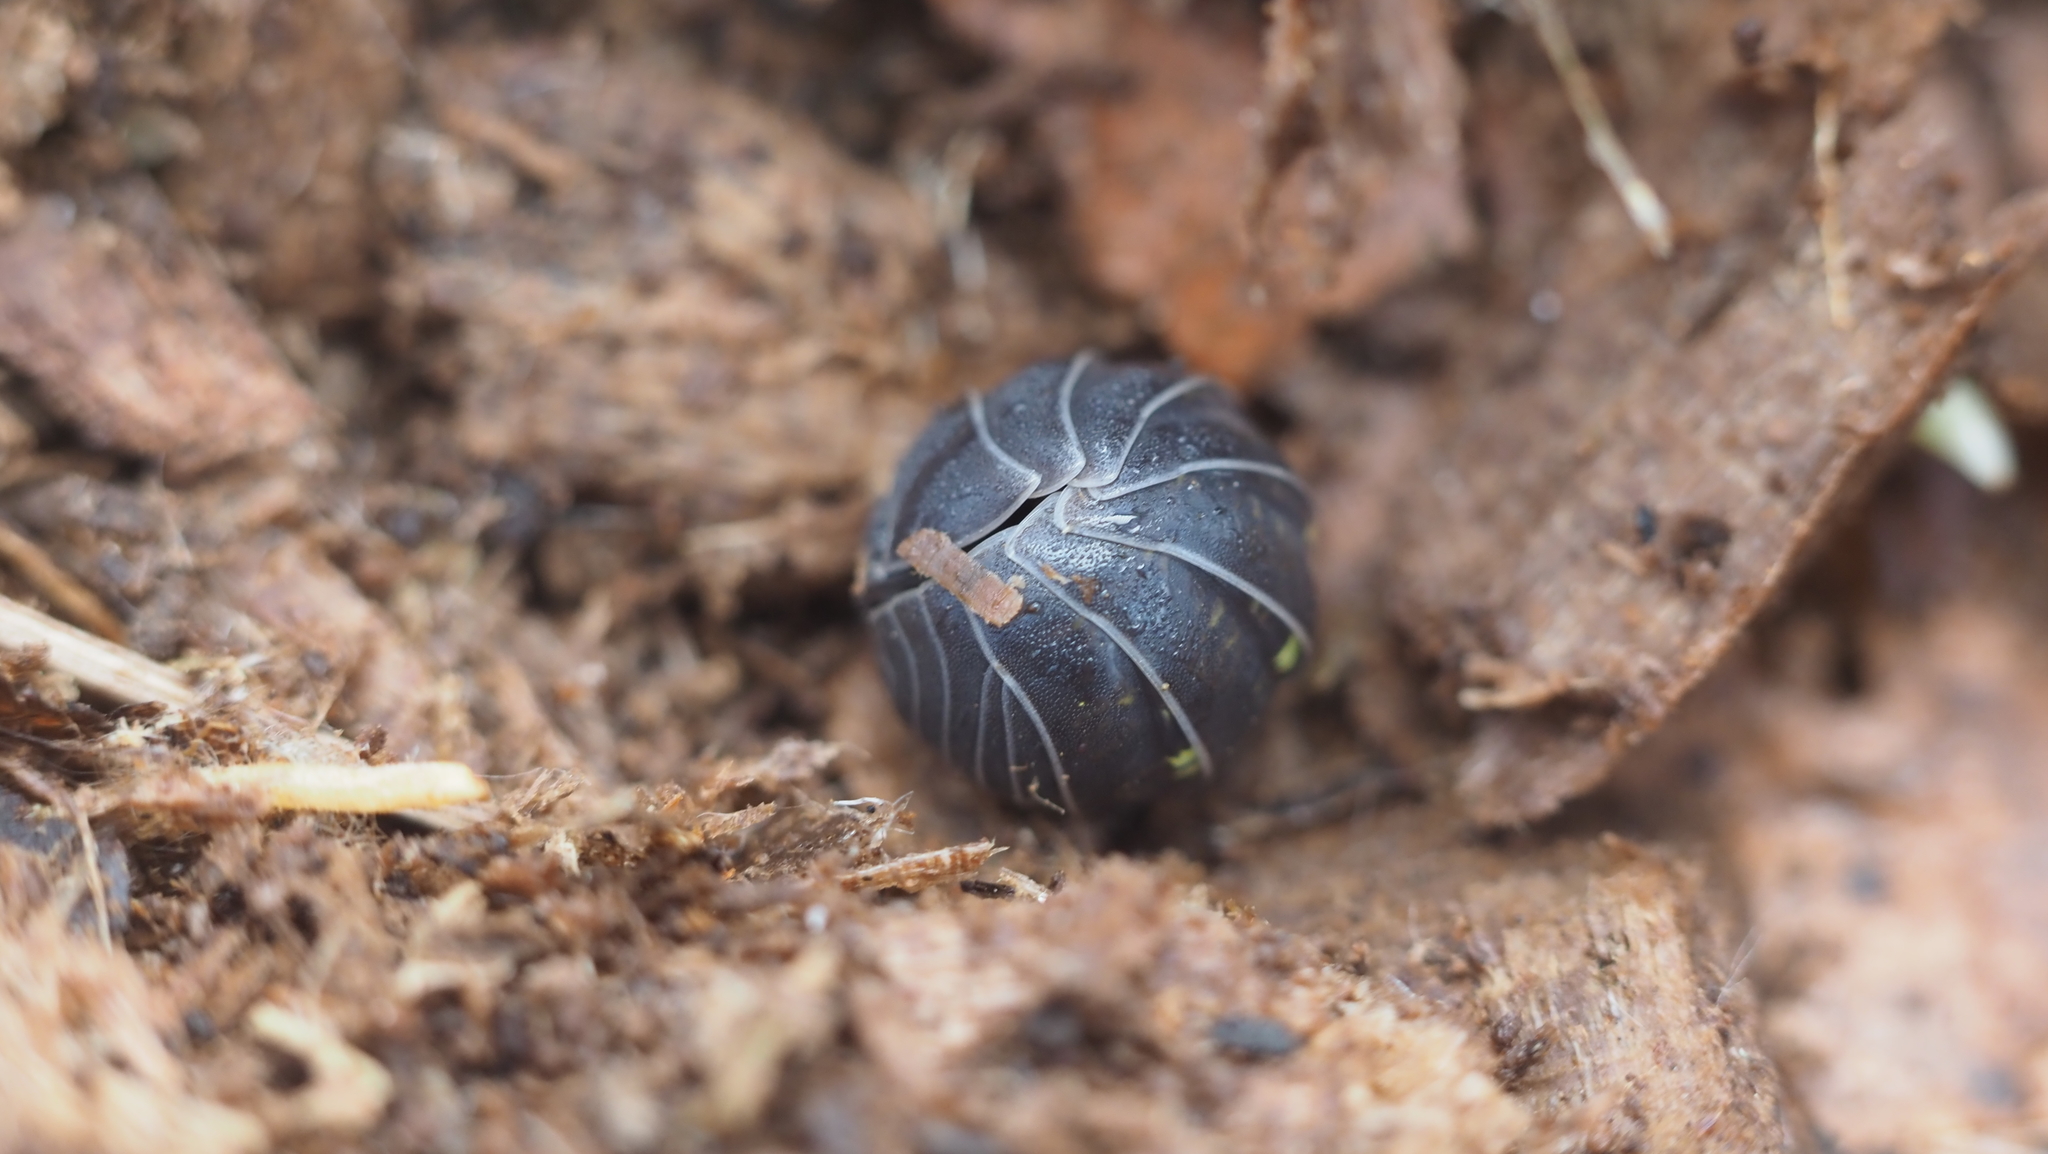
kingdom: Animalia
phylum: Arthropoda
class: Malacostraca
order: Isopoda
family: Armadillidiidae
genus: Armadillidium
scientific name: Armadillidium vulgare
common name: Common pill woodlouse
